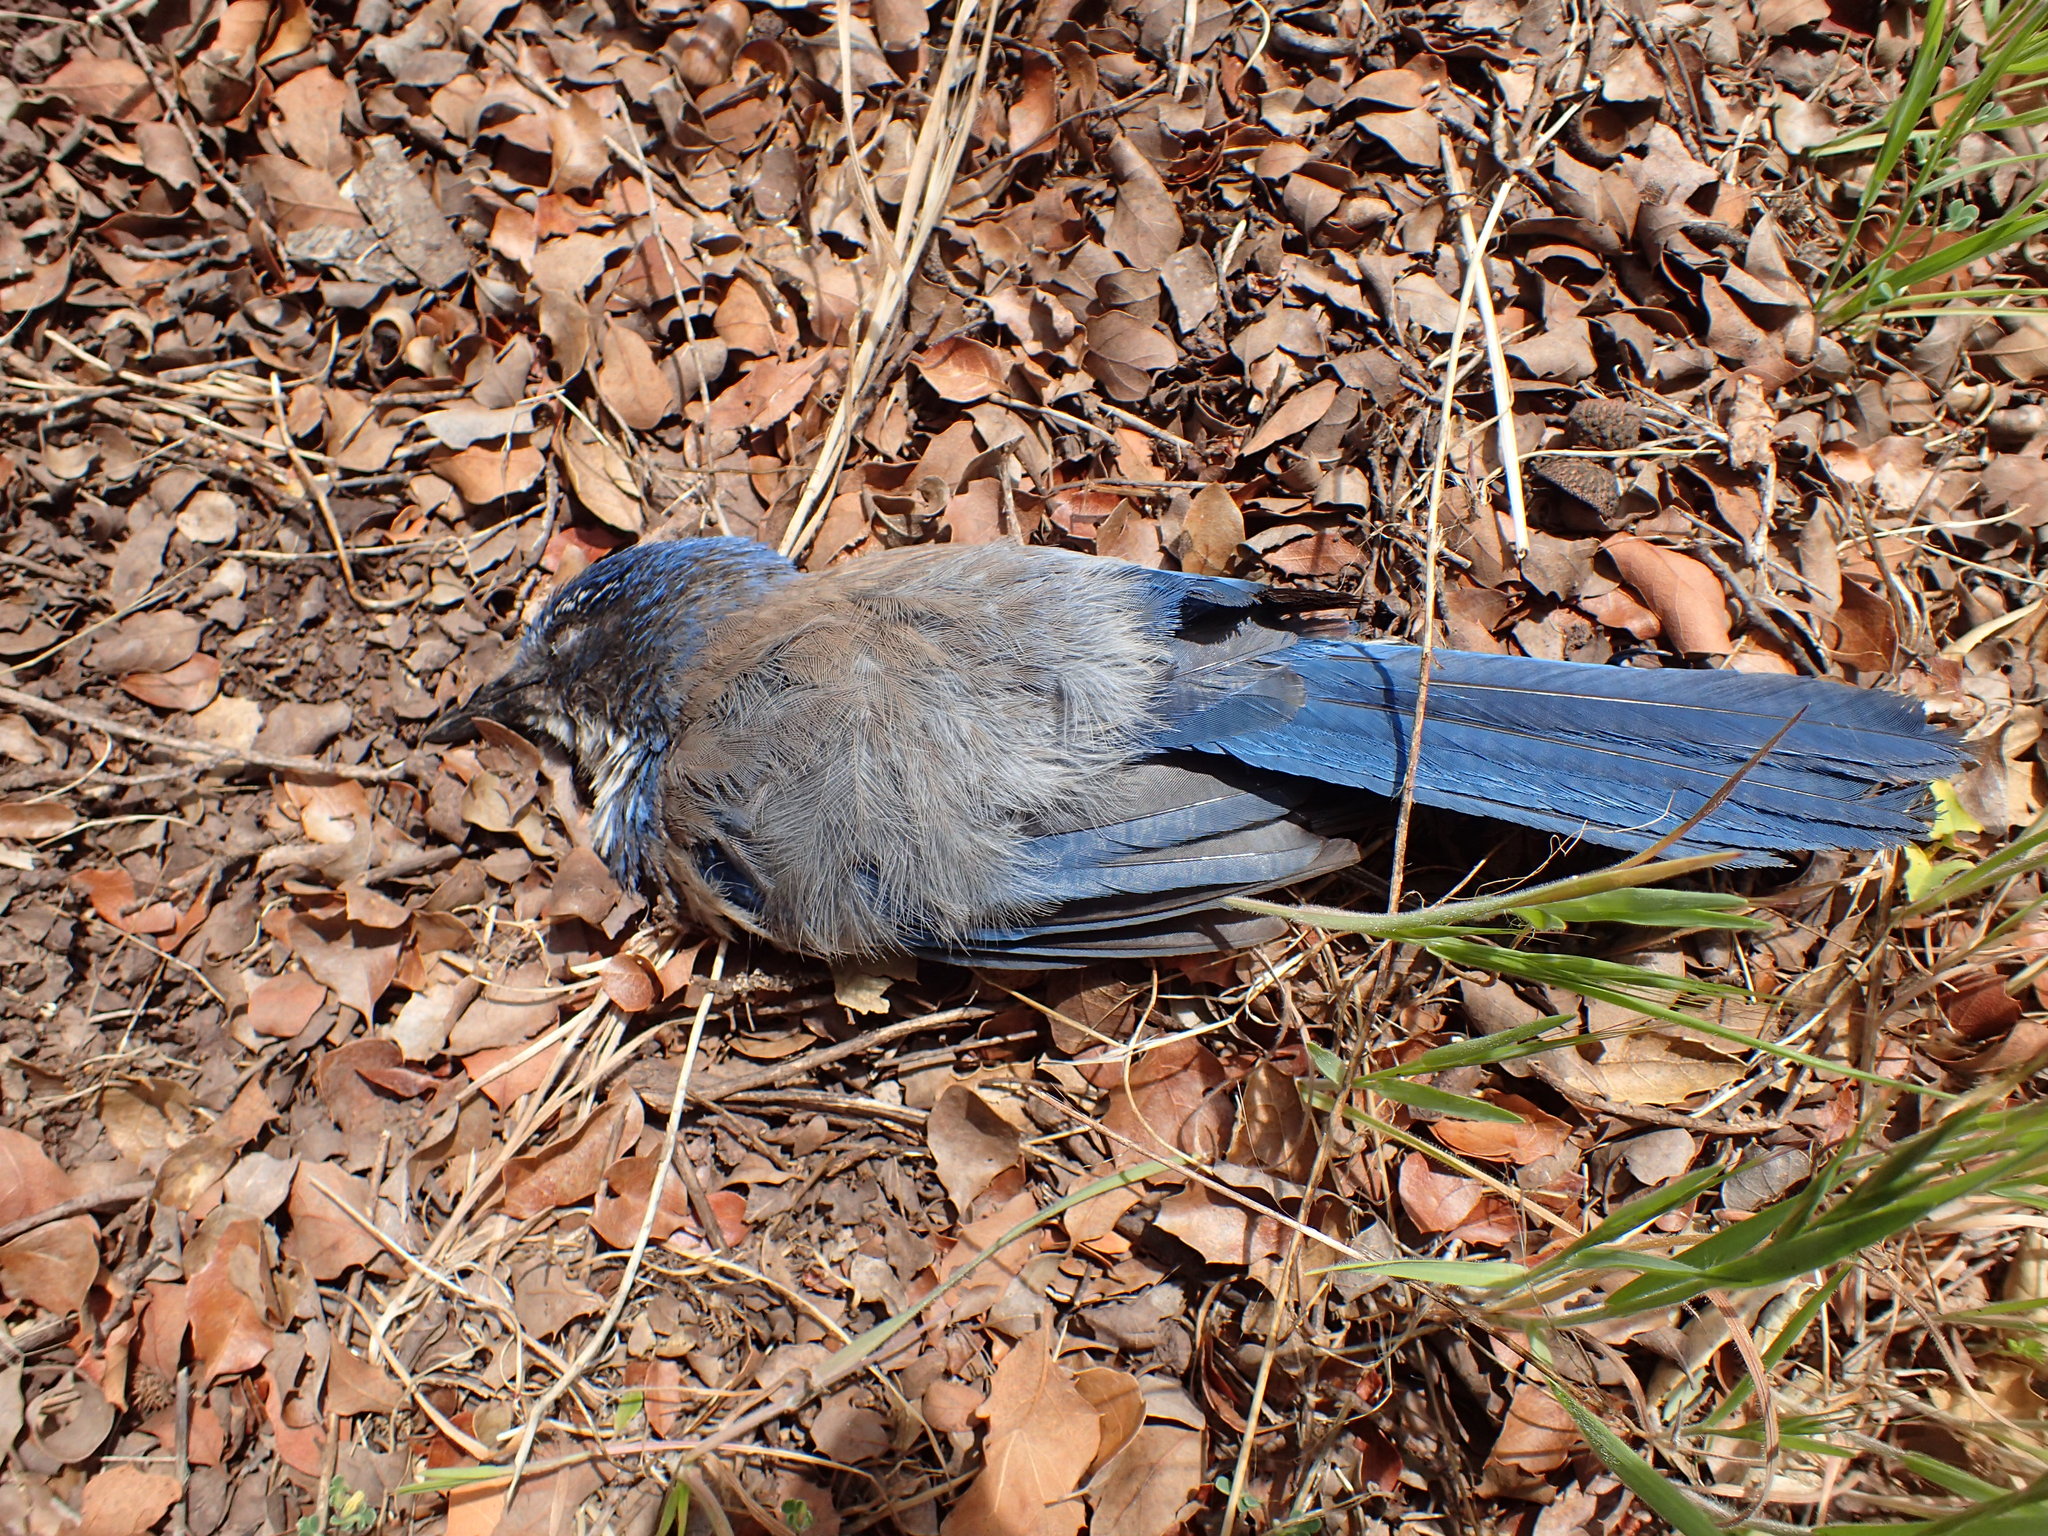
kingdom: Animalia
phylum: Chordata
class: Aves
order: Passeriformes
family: Corvidae
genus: Aphelocoma
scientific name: Aphelocoma californica
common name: California scrub-jay
